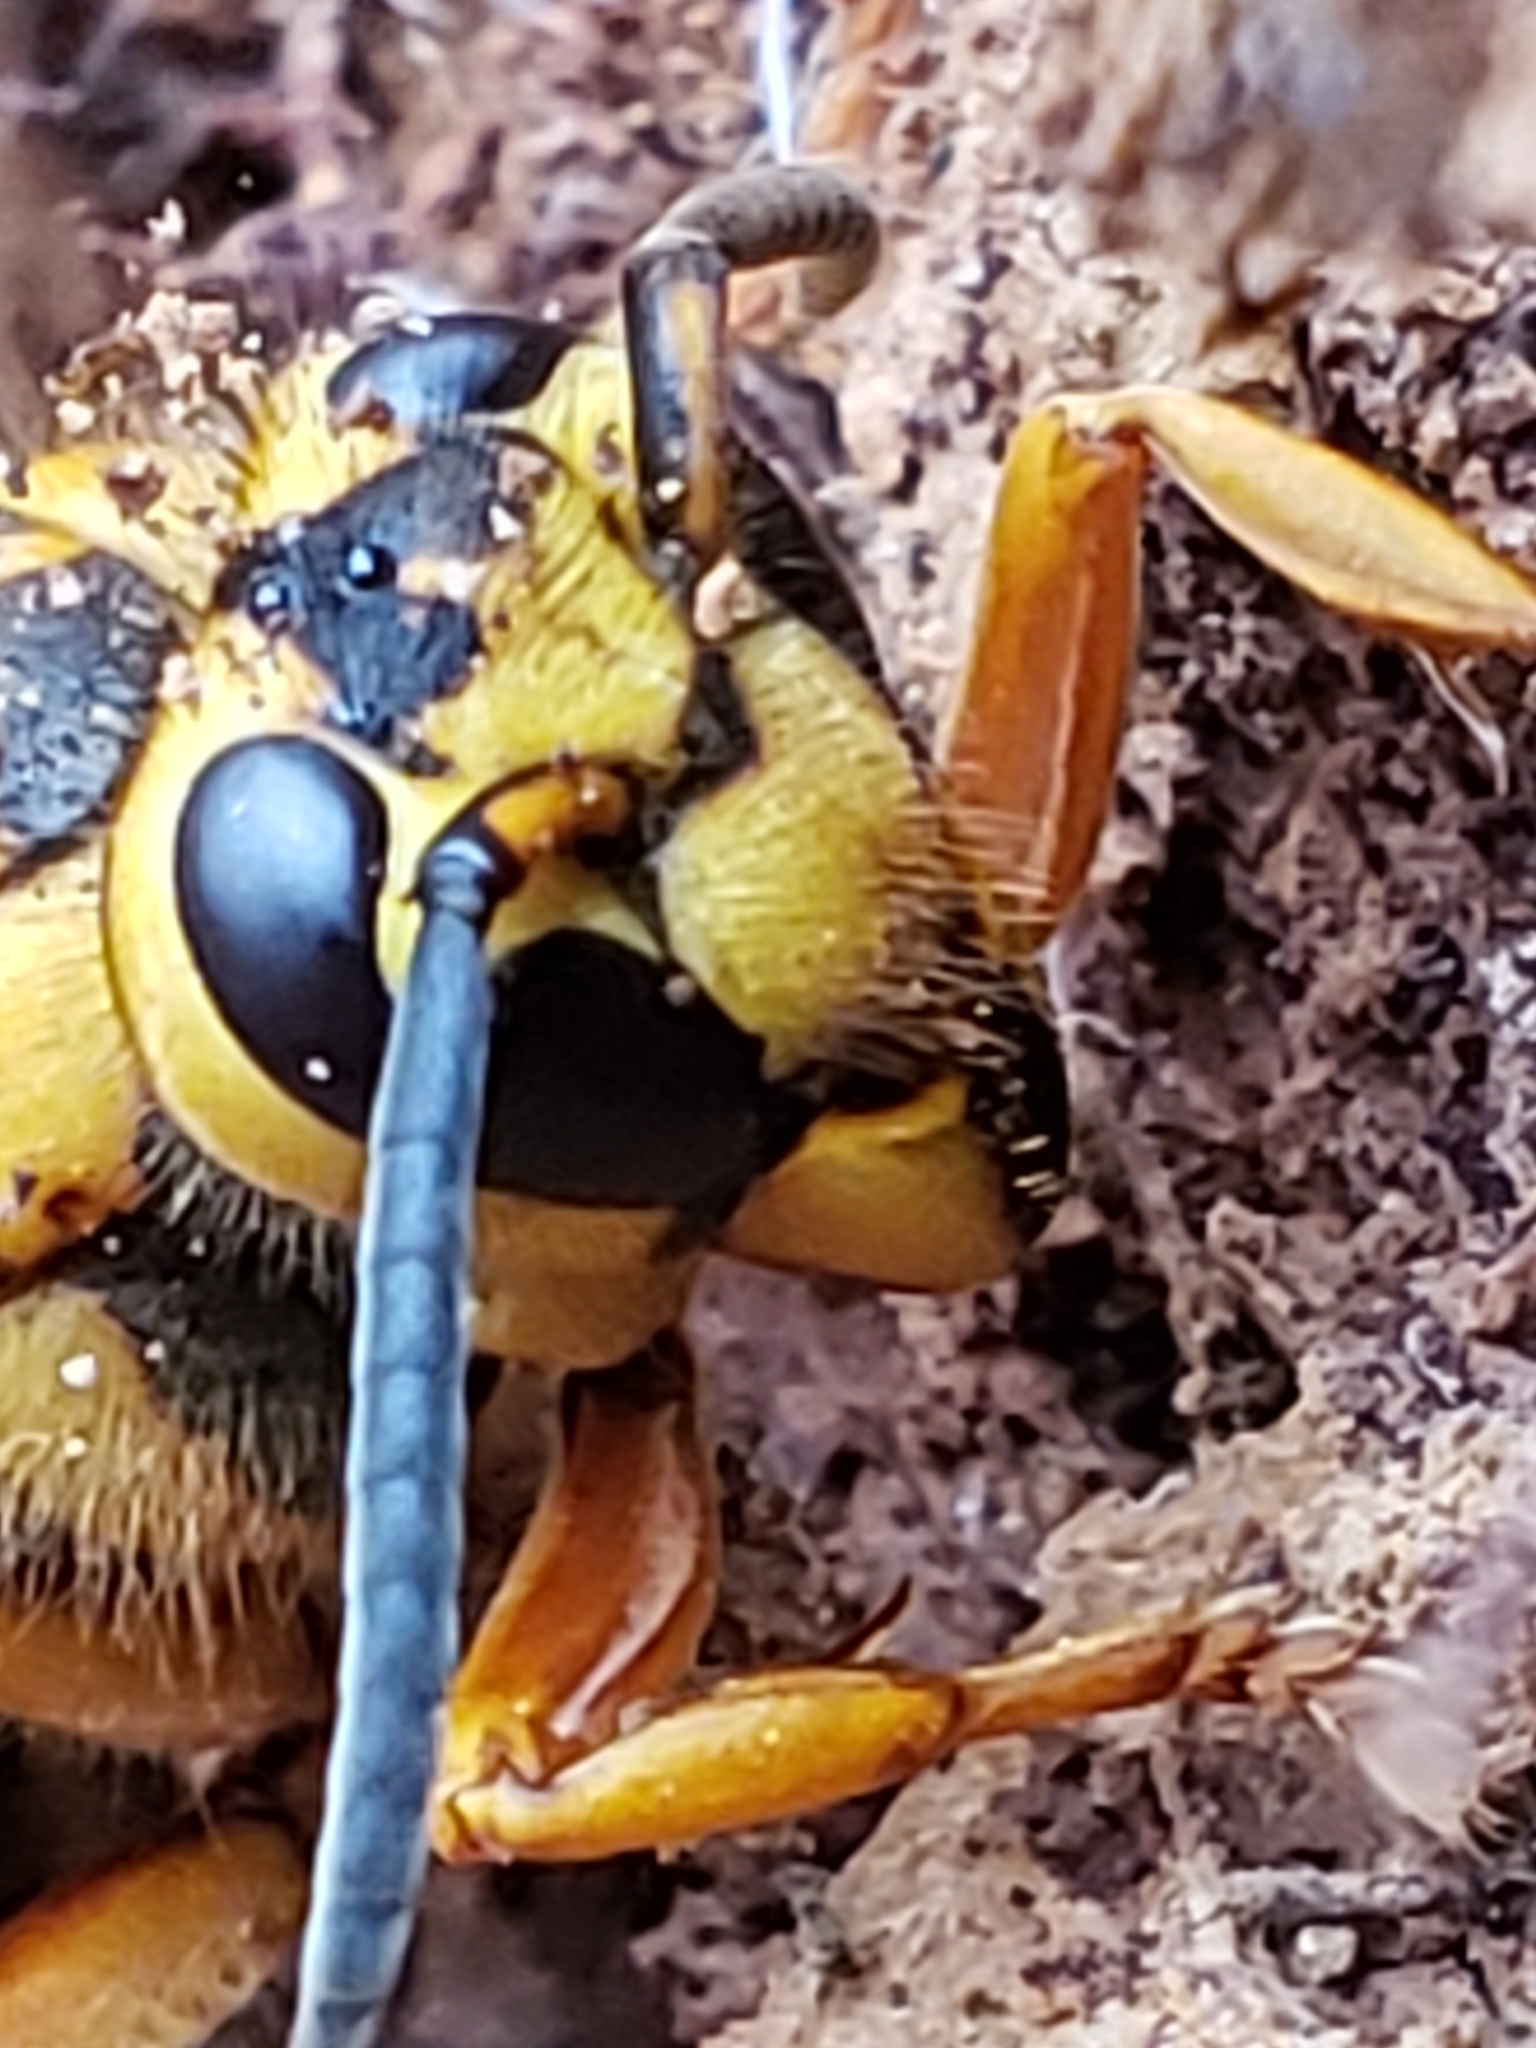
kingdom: Animalia
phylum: Arthropoda
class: Insecta
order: Hymenoptera
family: Vespidae
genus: Vespula
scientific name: Vespula squamosa
